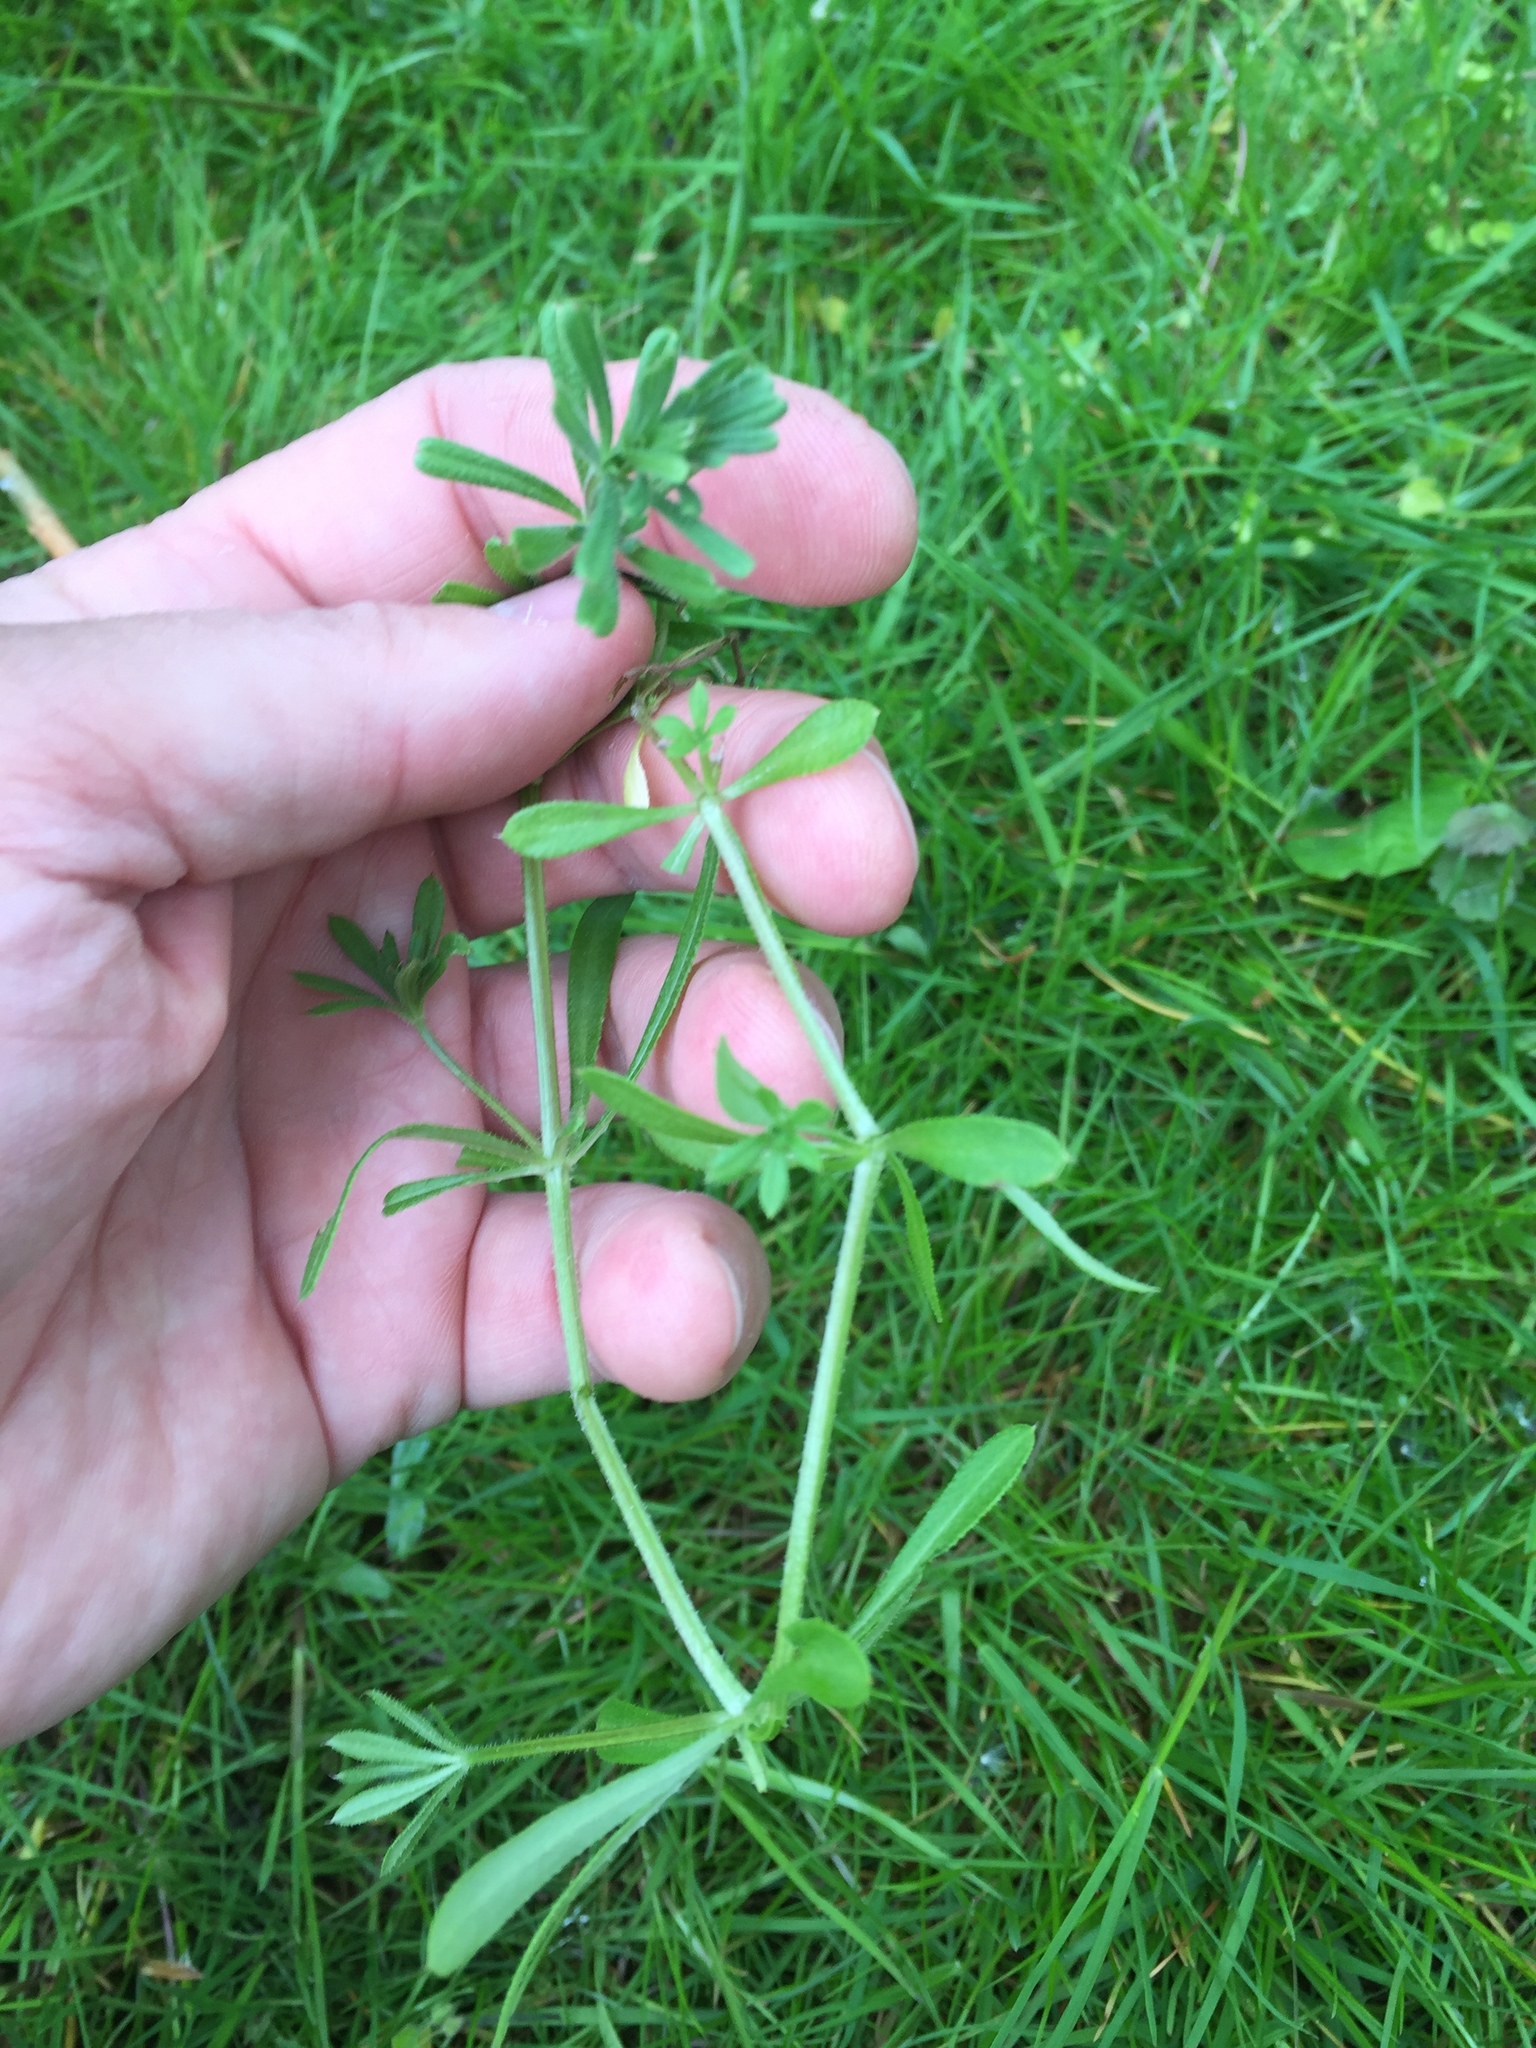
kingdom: Plantae
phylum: Tracheophyta
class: Magnoliopsida
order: Gentianales
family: Rubiaceae
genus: Galium
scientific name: Galium aparine
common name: Cleavers
